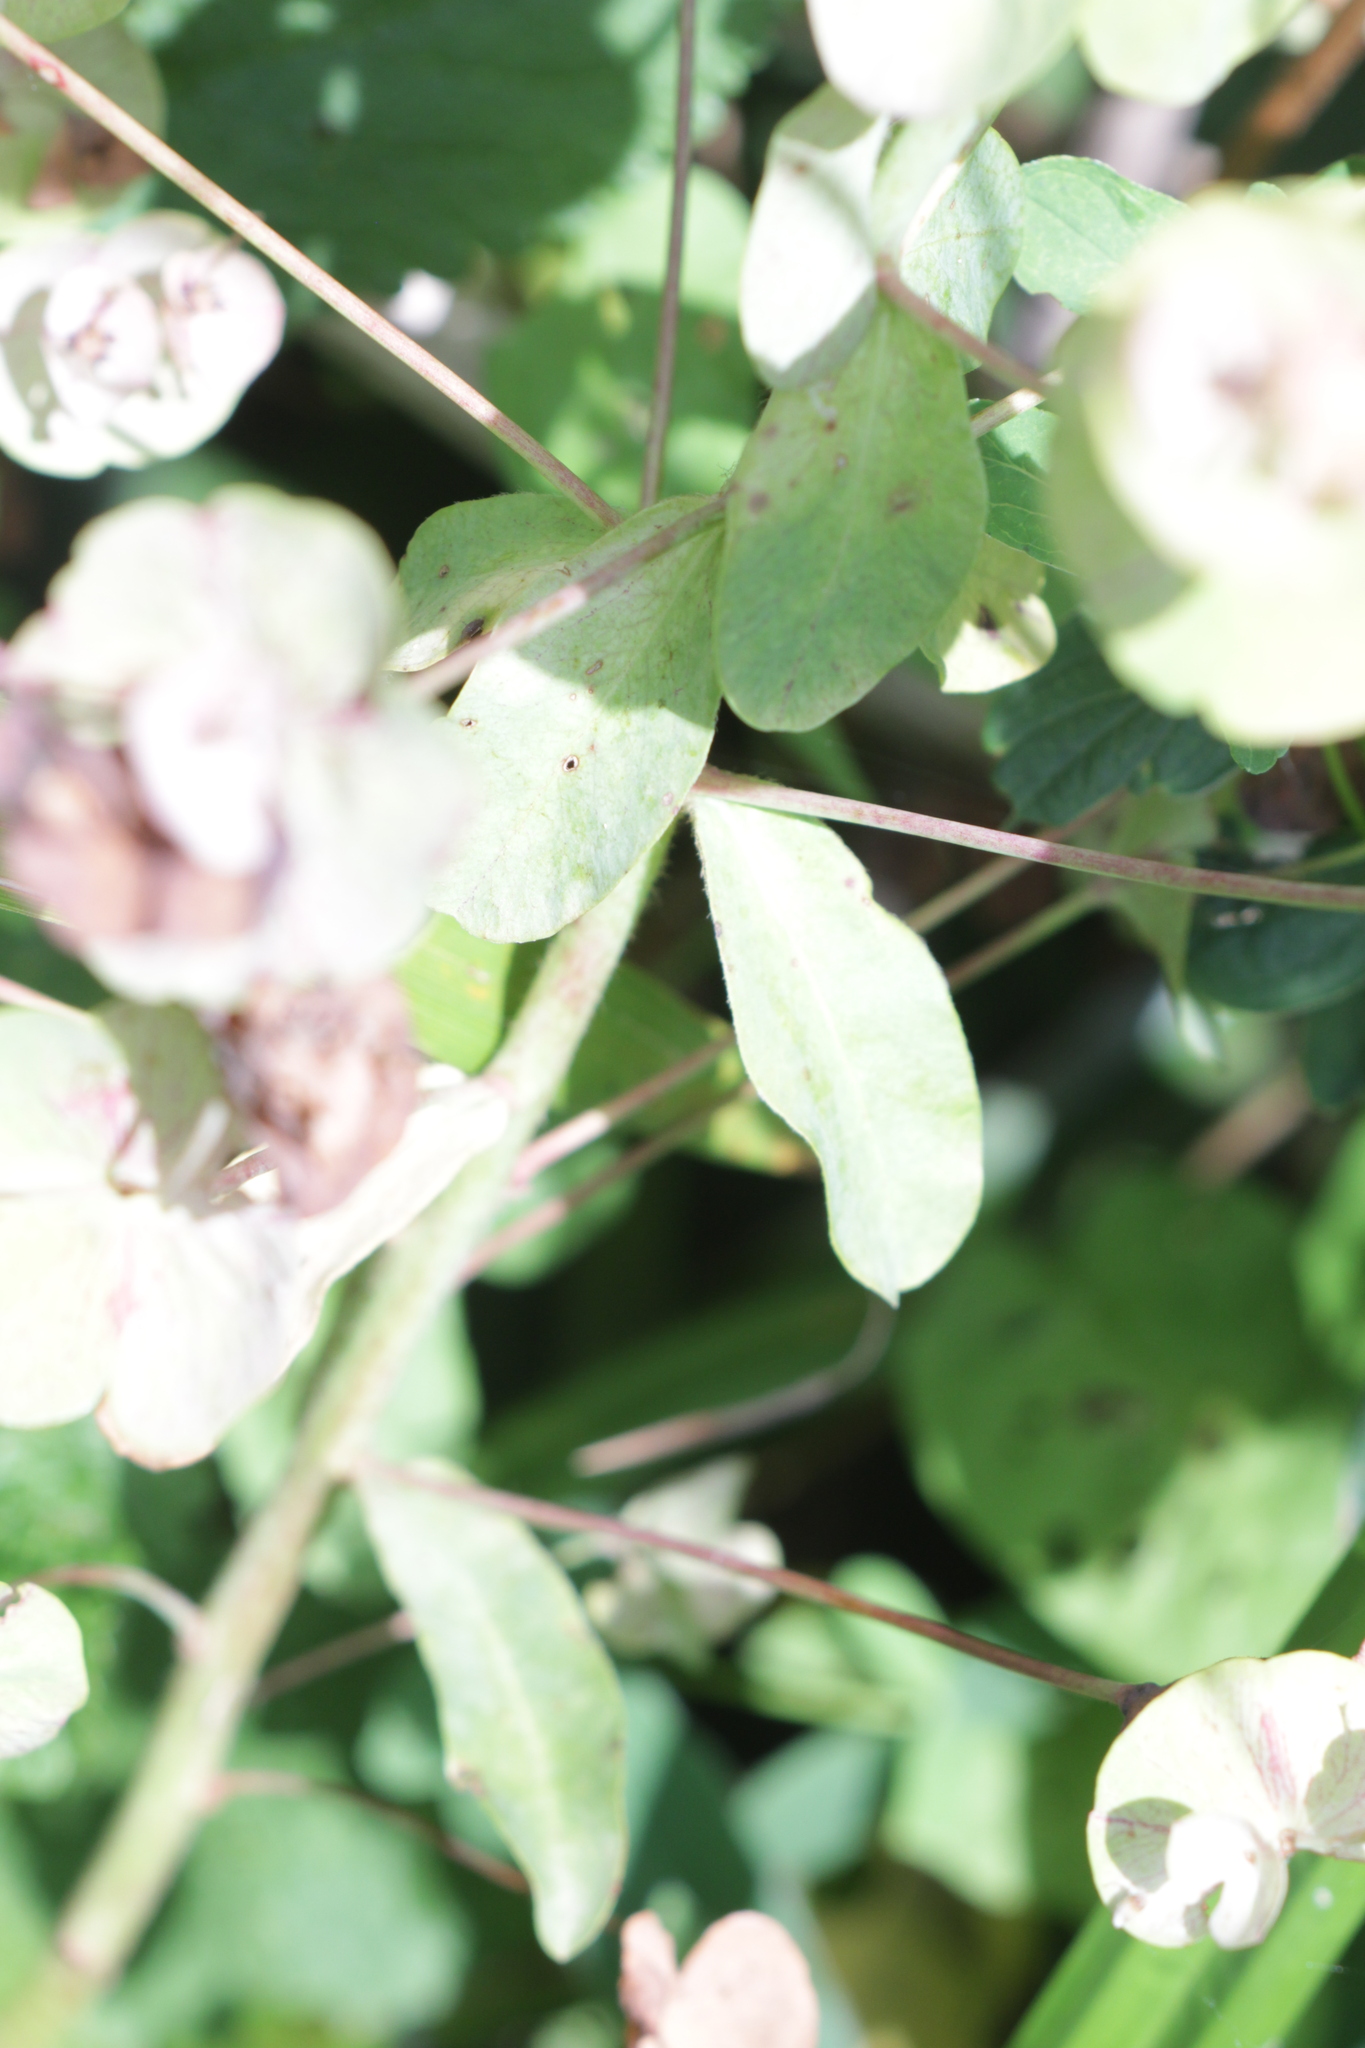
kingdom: Plantae
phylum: Tracheophyta
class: Magnoliopsida
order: Malpighiales
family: Euphorbiaceae
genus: Euphorbia
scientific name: Euphorbia amygdaloides
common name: Wood spurge
